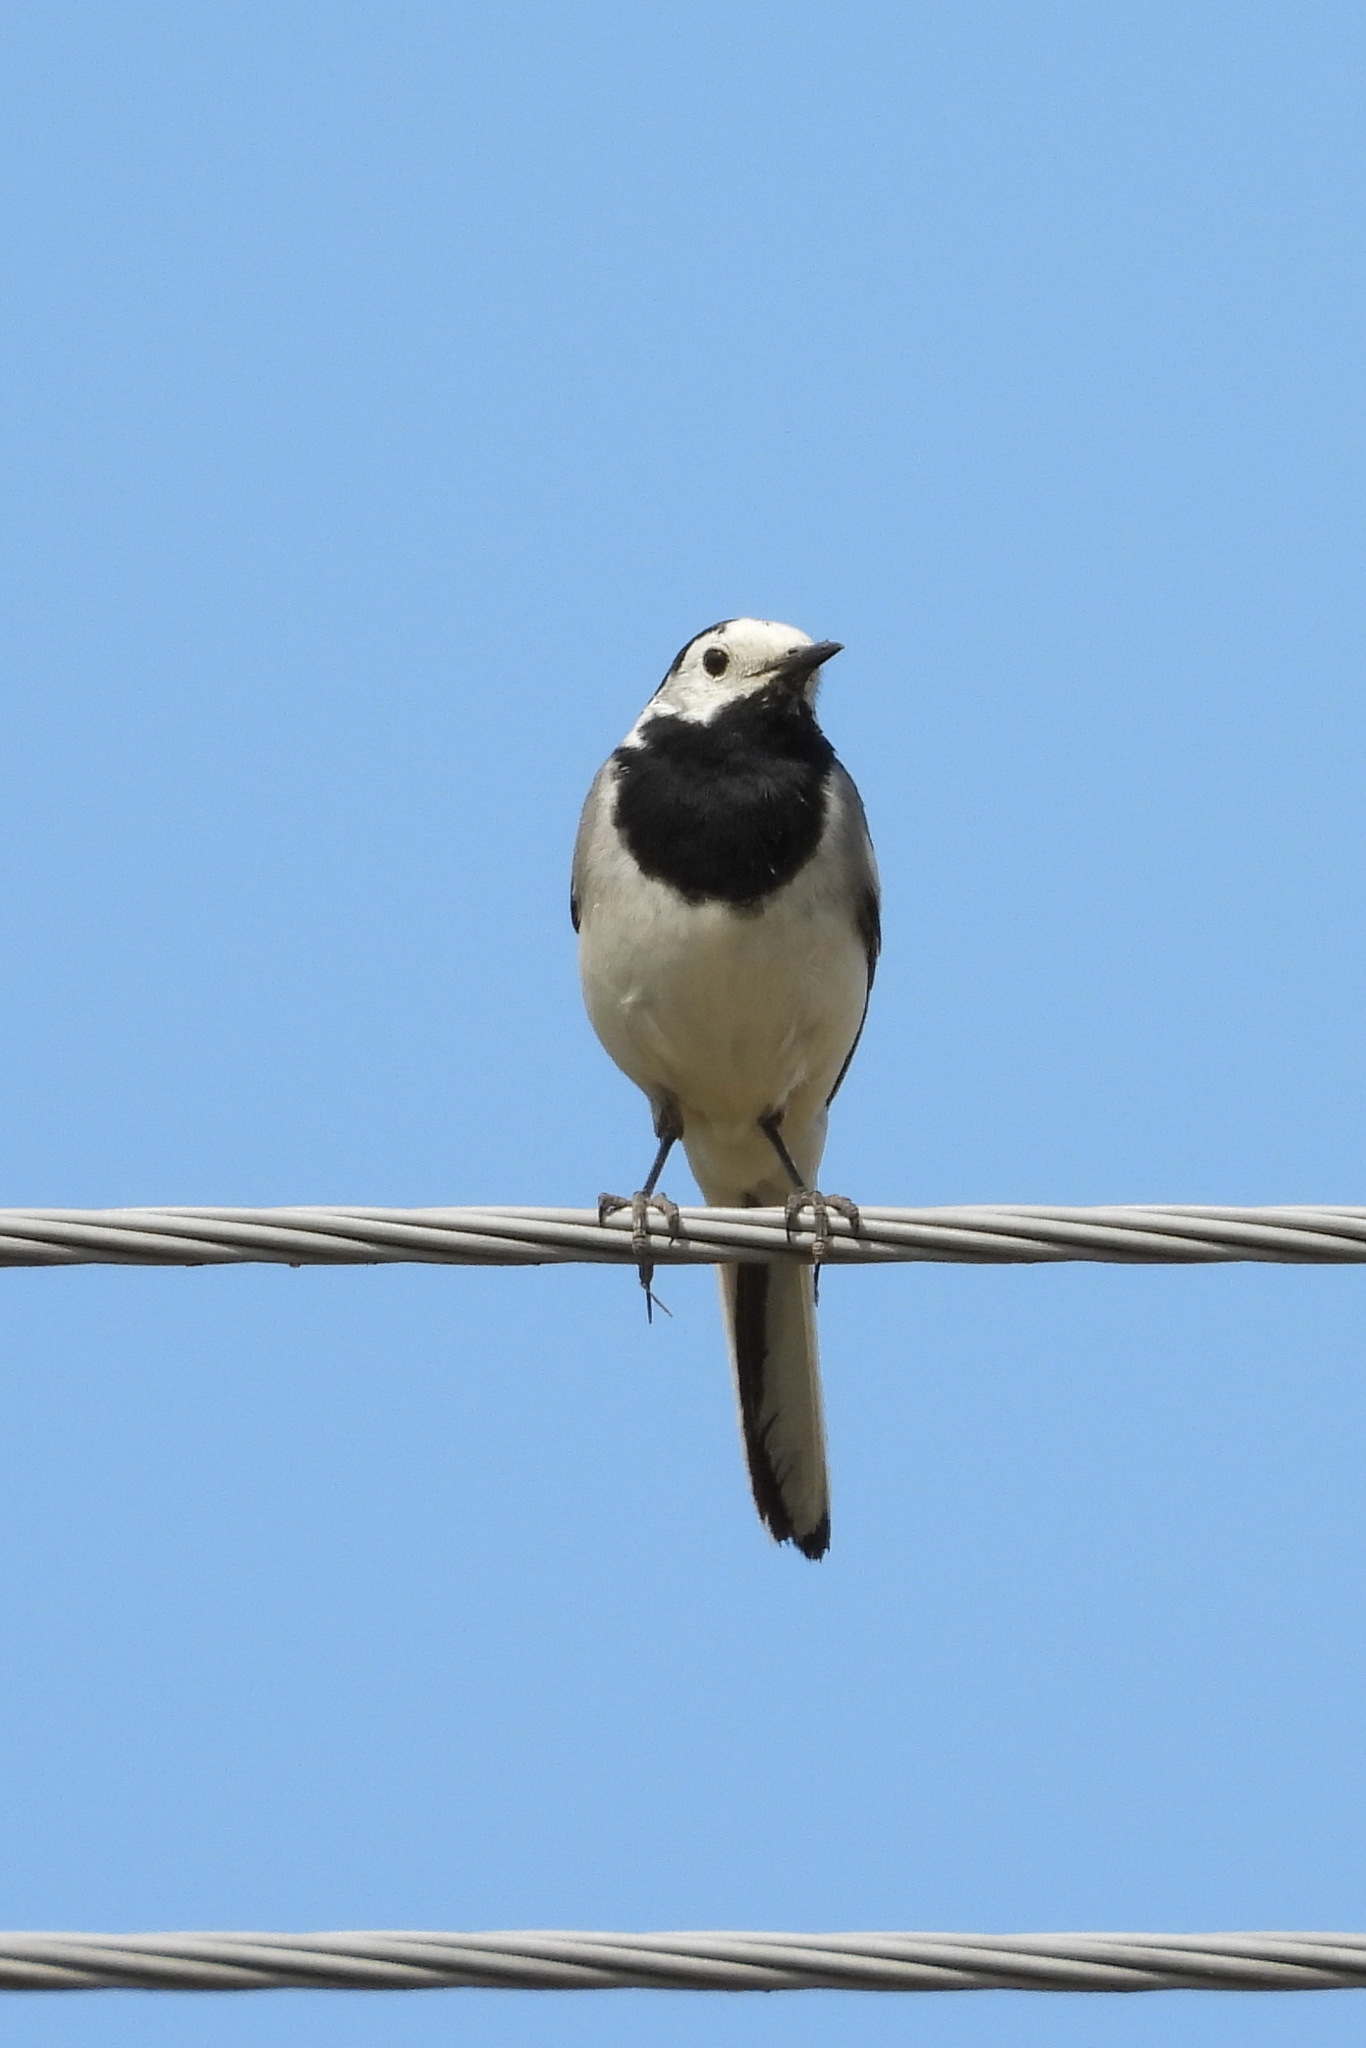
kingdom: Animalia
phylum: Chordata
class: Aves
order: Passeriformes
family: Motacillidae
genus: Motacilla
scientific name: Motacilla alba
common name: White wagtail
